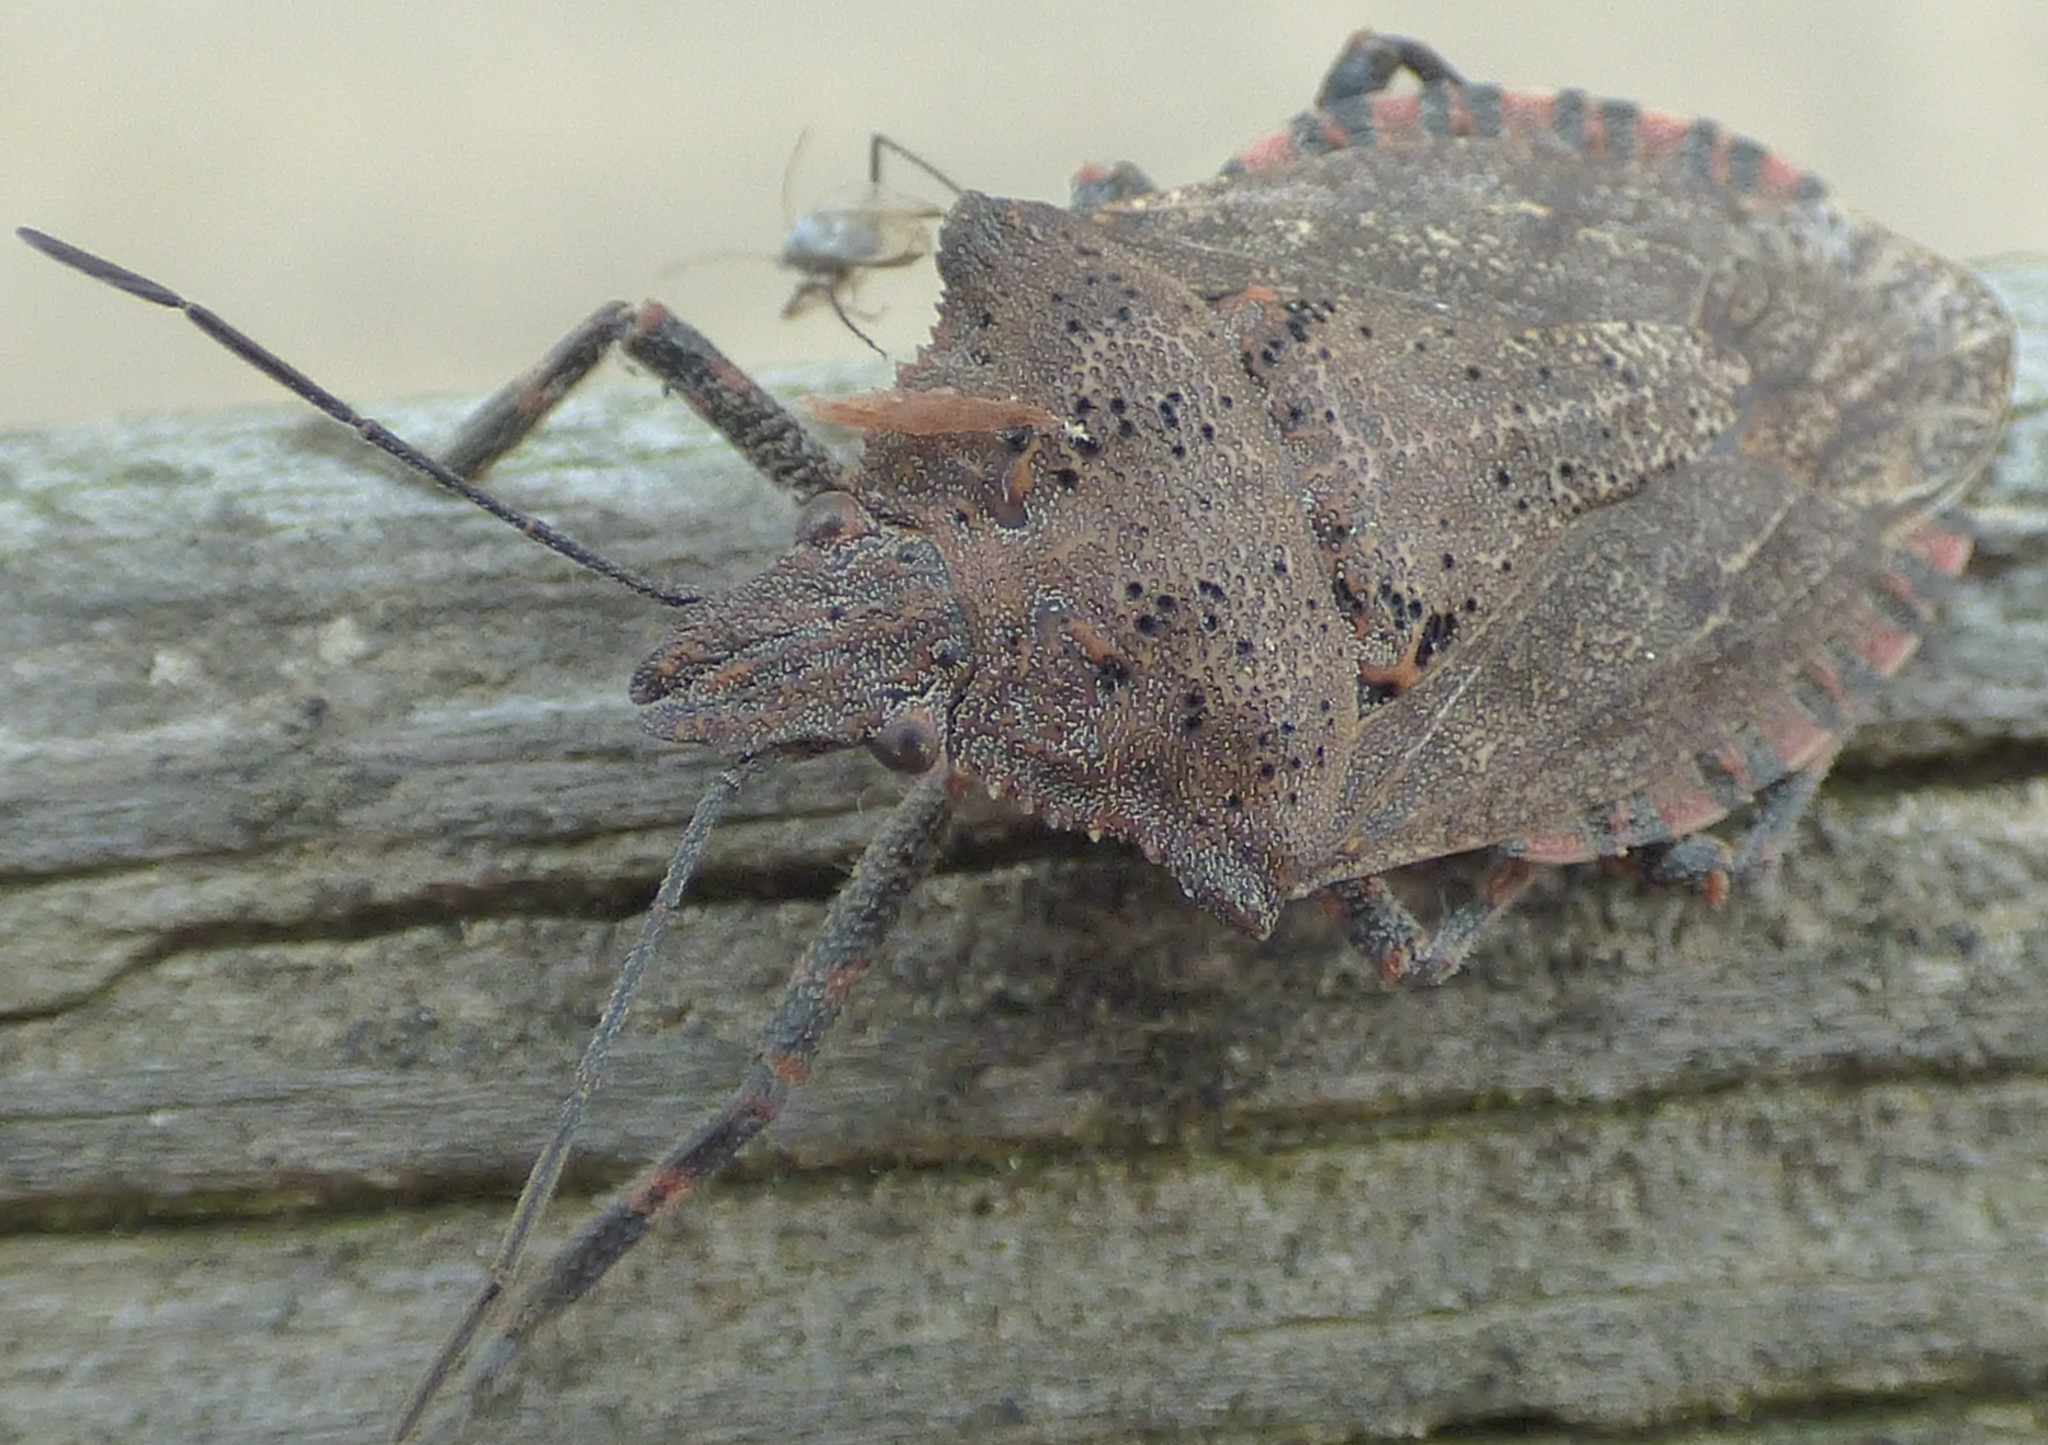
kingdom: Animalia
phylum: Arthropoda
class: Insecta
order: Hemiptera
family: Pentatomidae
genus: Brochymena
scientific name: Brochymena quadripustulata
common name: Four-humped stink bug
